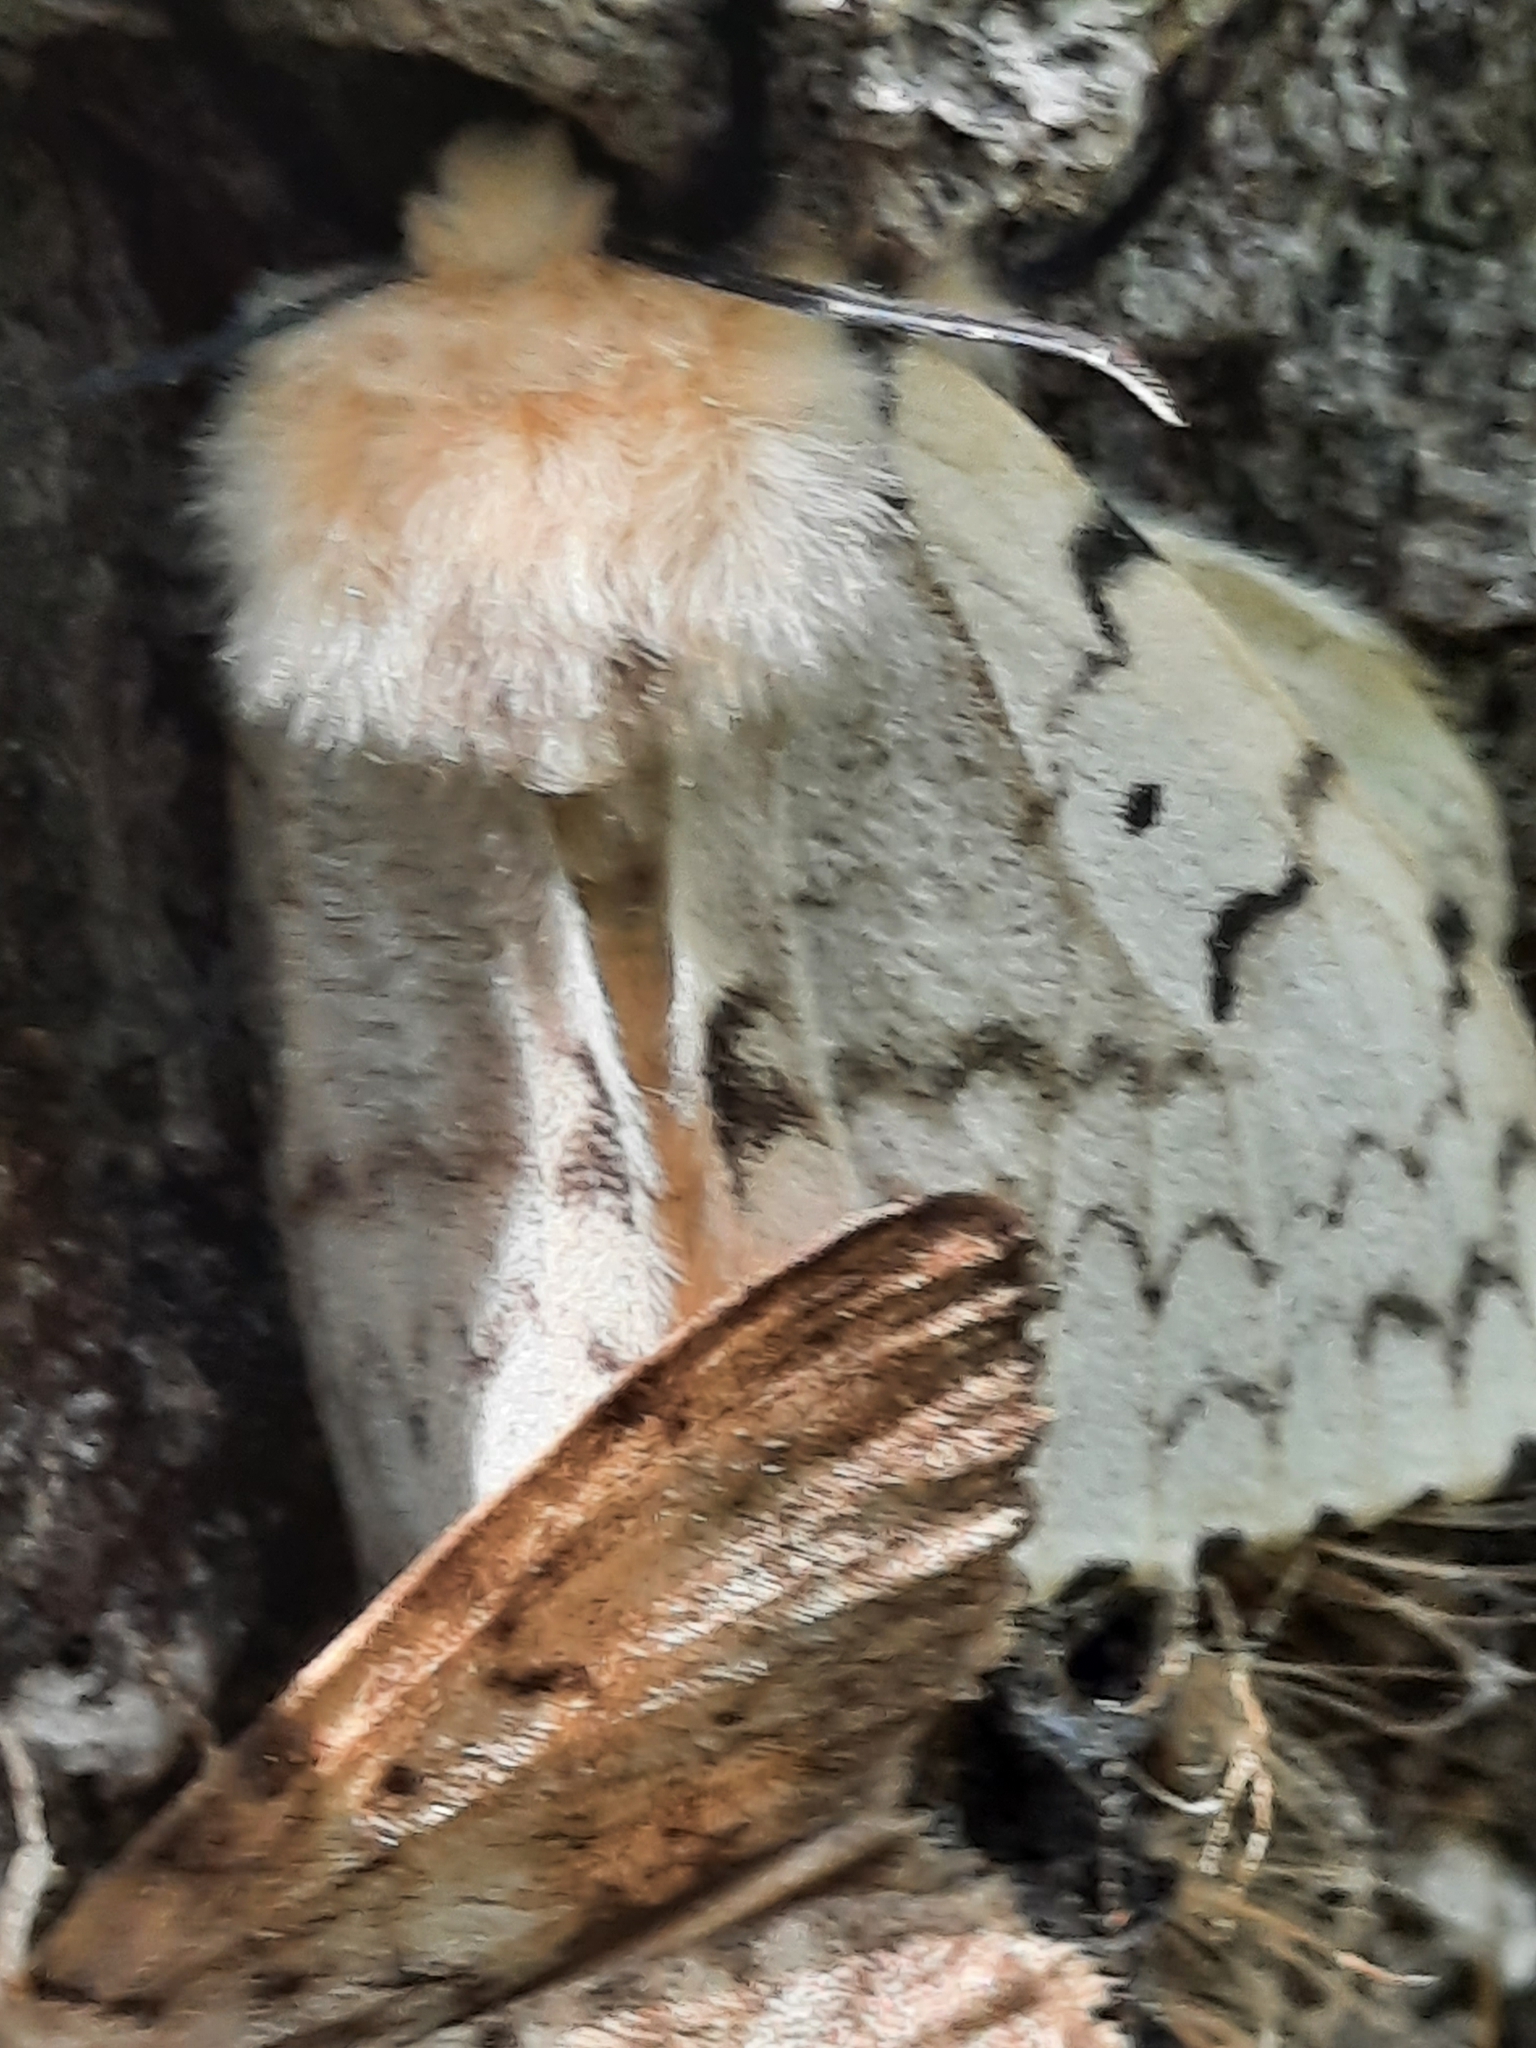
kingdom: Animalia
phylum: Arthropoda
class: Insecta
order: Lepidoptera
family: Erebidae
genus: Lymantria
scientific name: Lymantria dispar
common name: Gypsy moth
